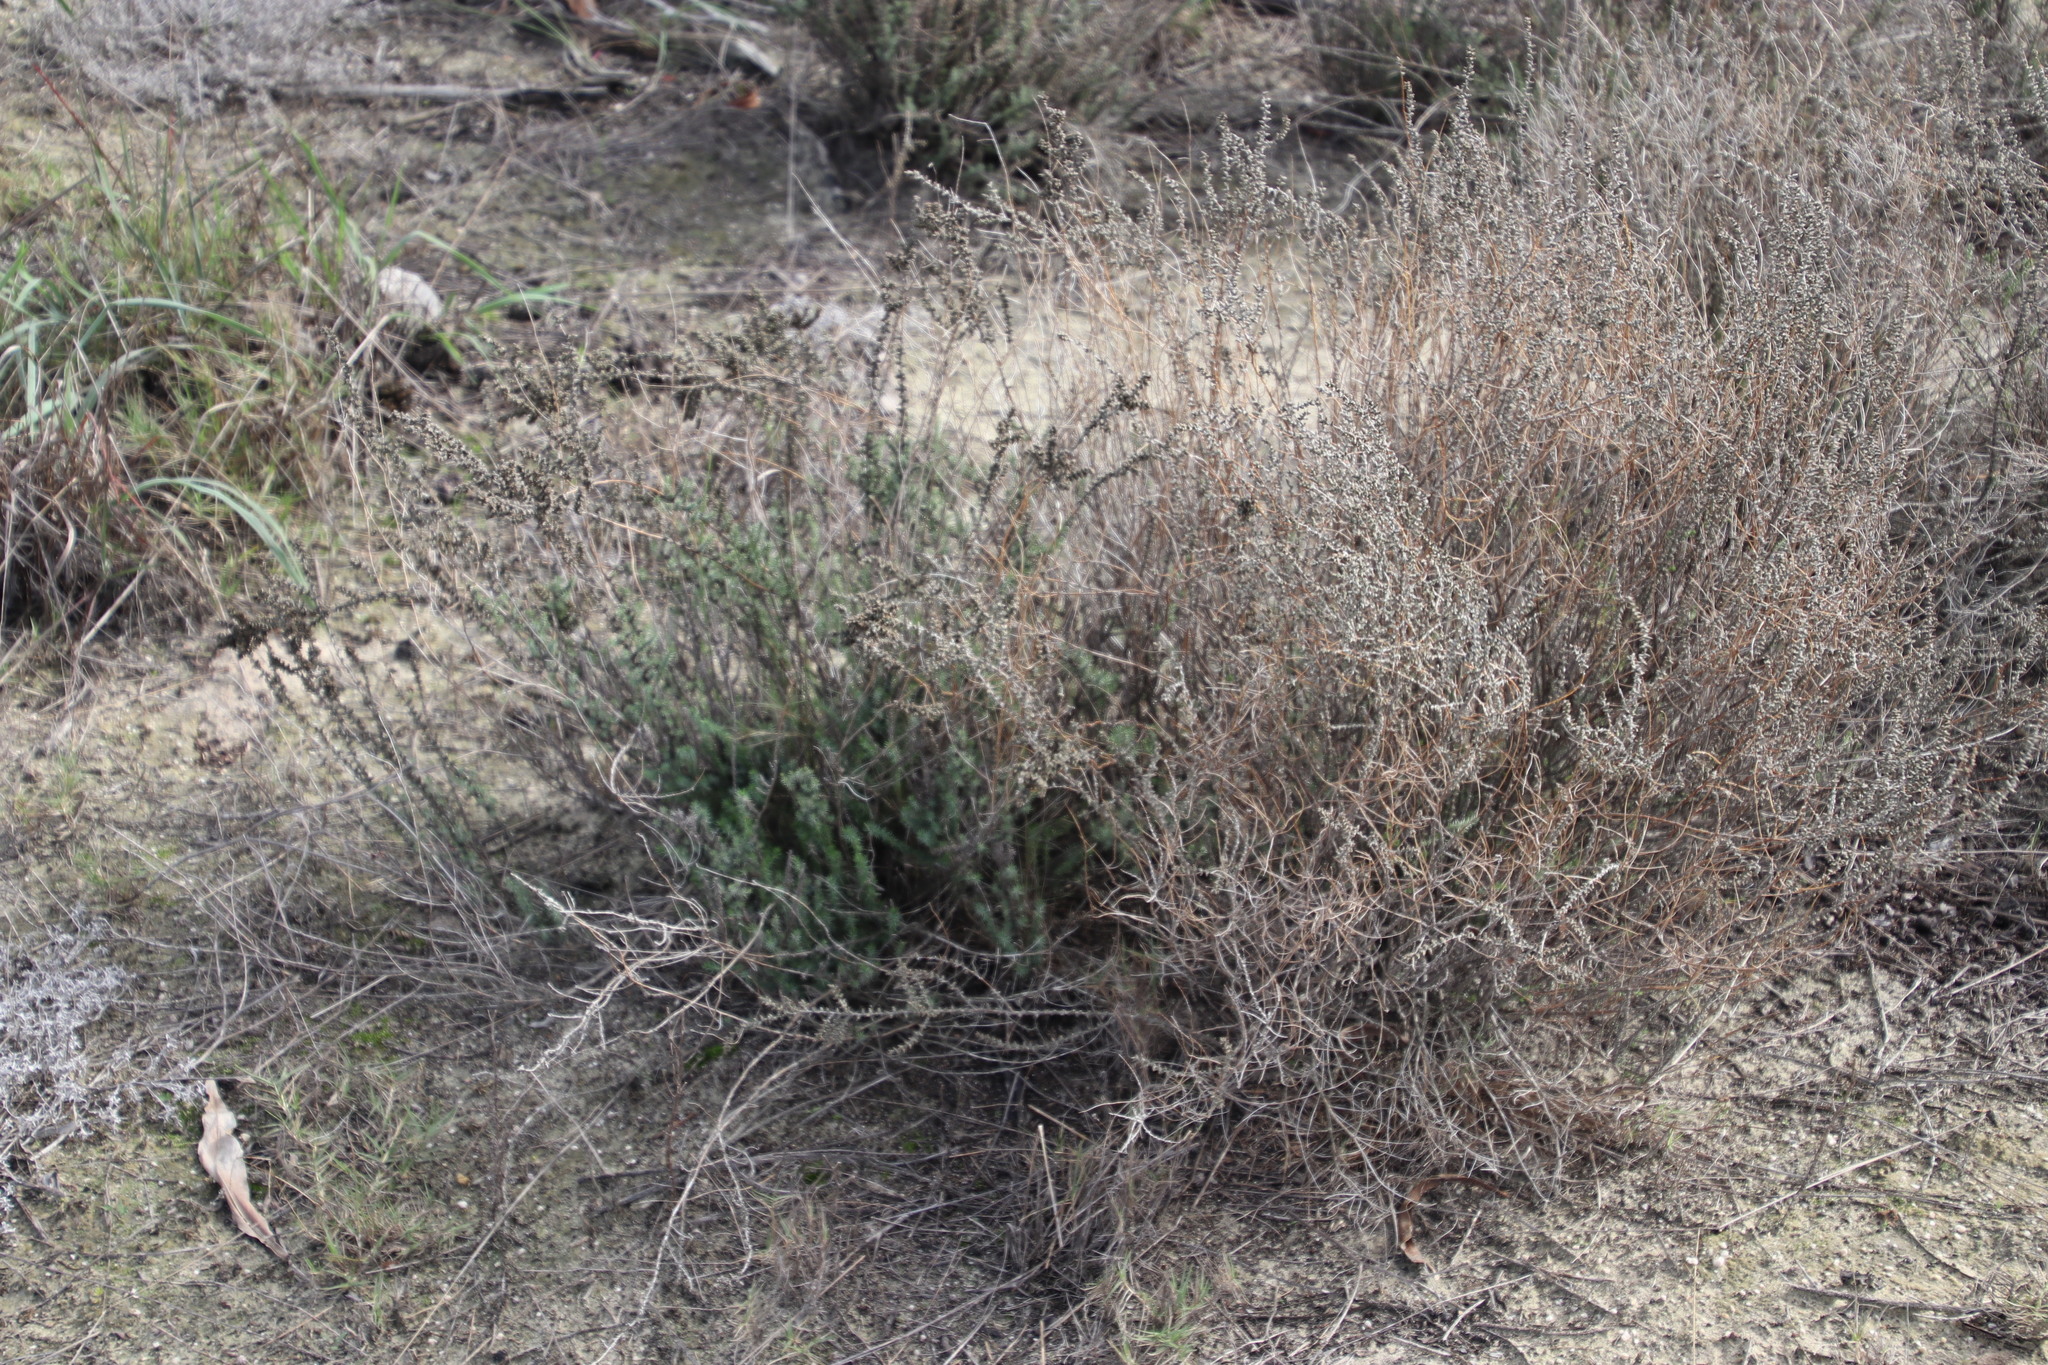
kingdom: Plantae
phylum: Tracheophyta
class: Magnoliopsida
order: Asterales
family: Asteraceae
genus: Ifloga
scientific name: Ifloga ambigua
